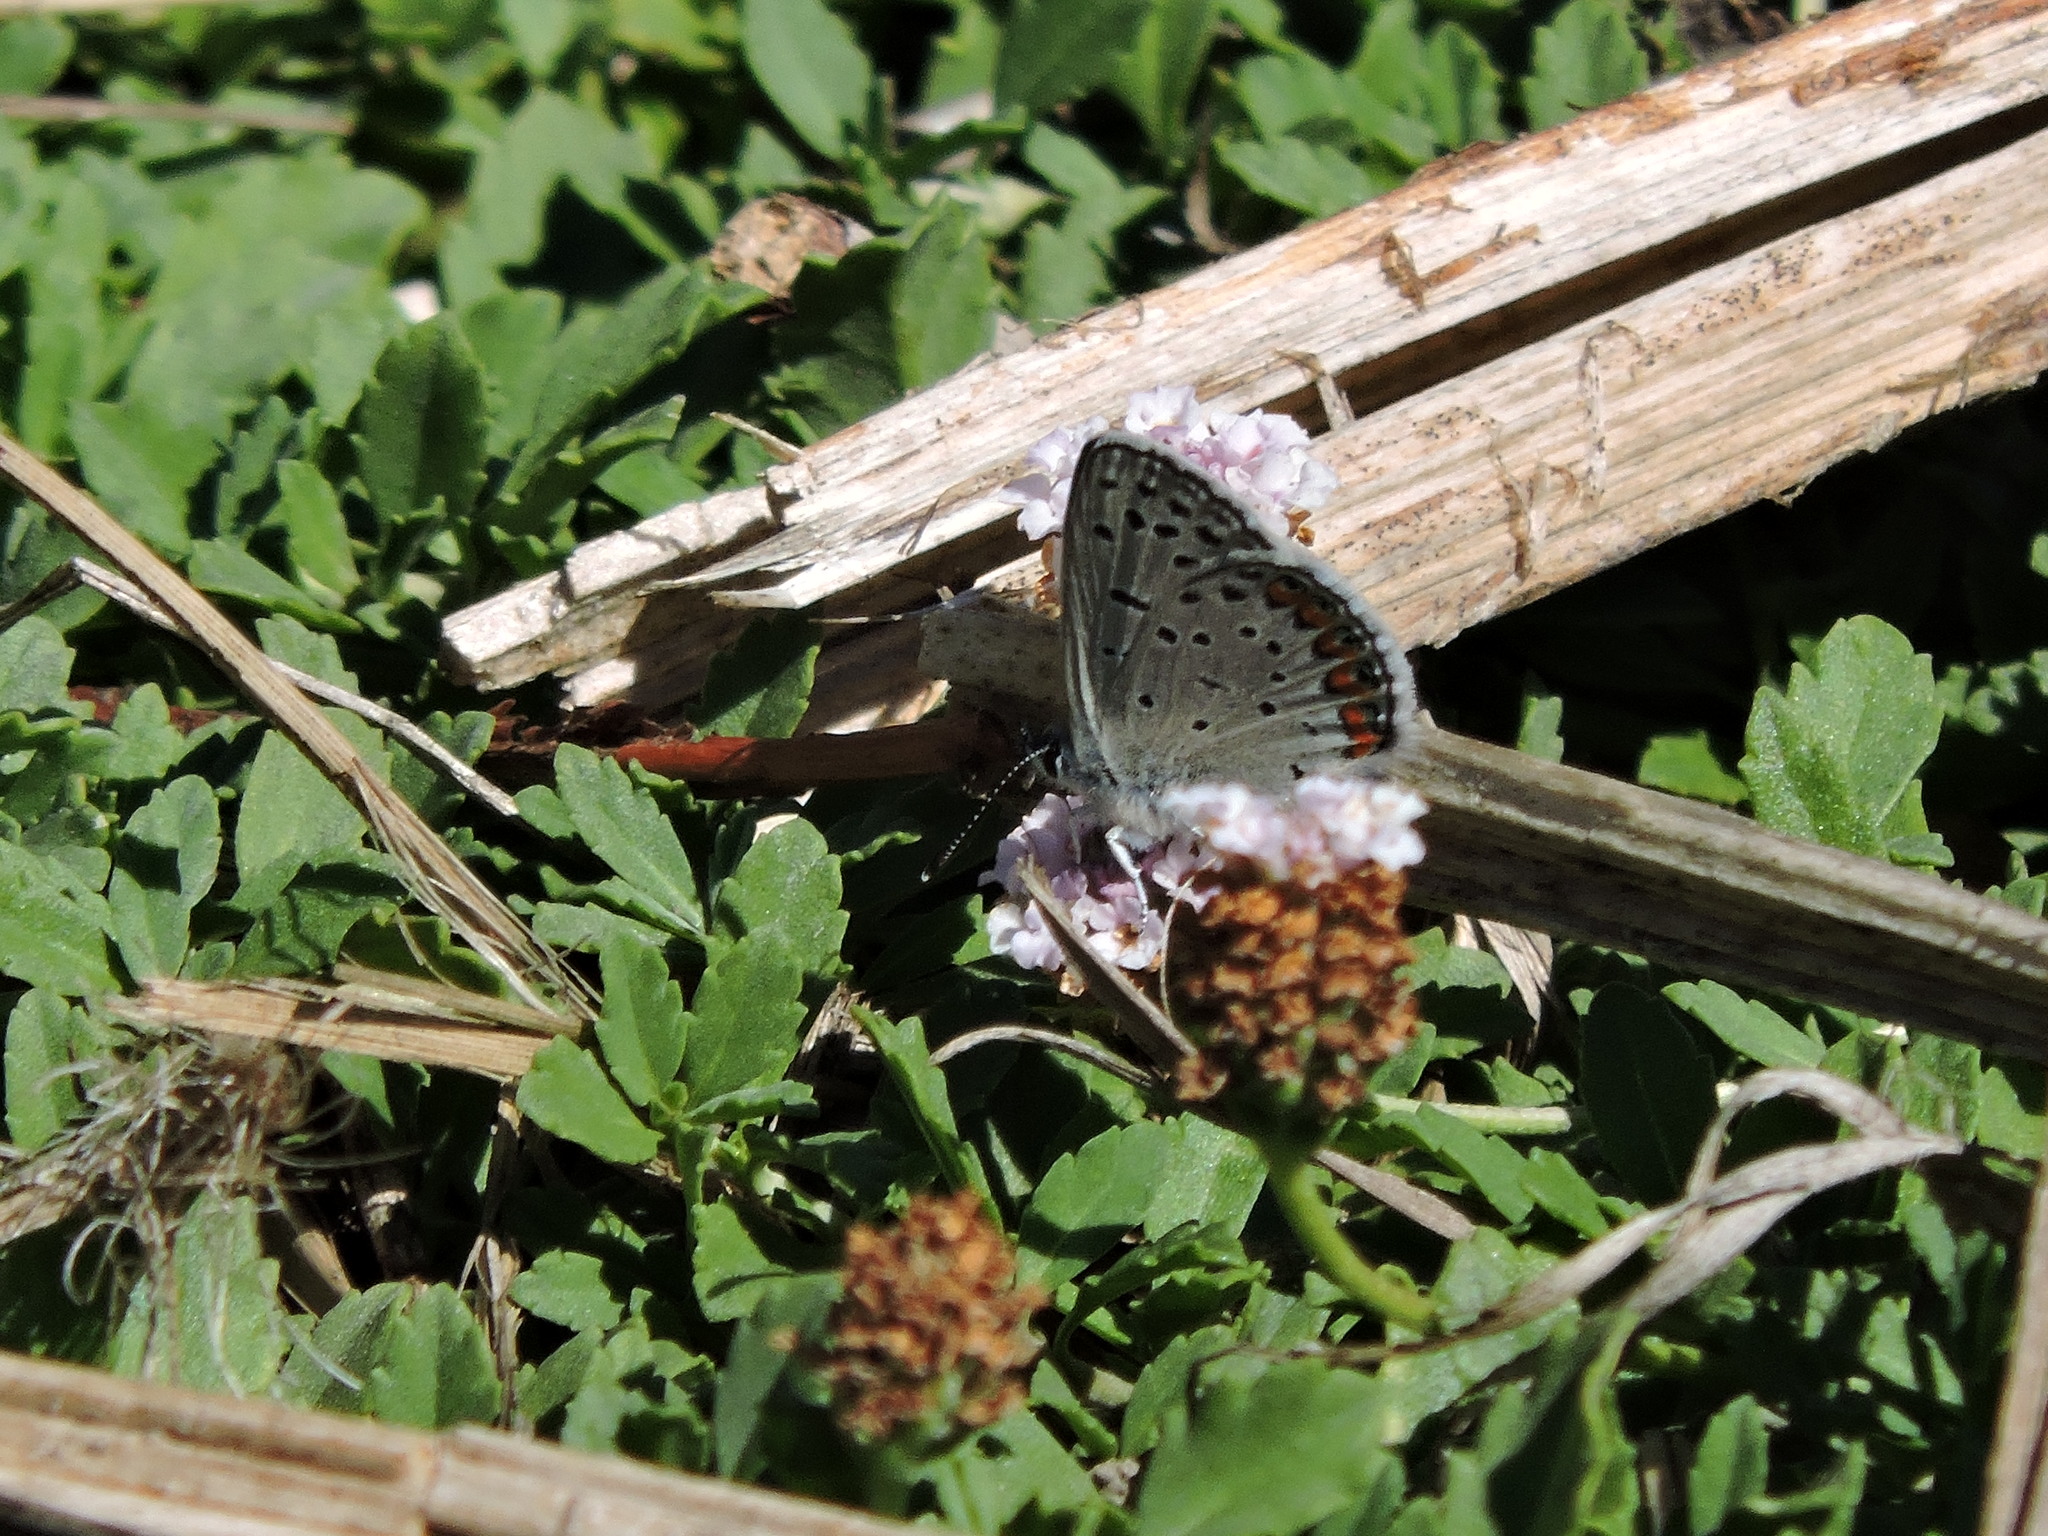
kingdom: Animalia
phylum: Arthropoda
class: Insecta
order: Lepidoptera
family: Lycaenidae
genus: Icaricia
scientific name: Icaricia acmon
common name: Acmon blue
